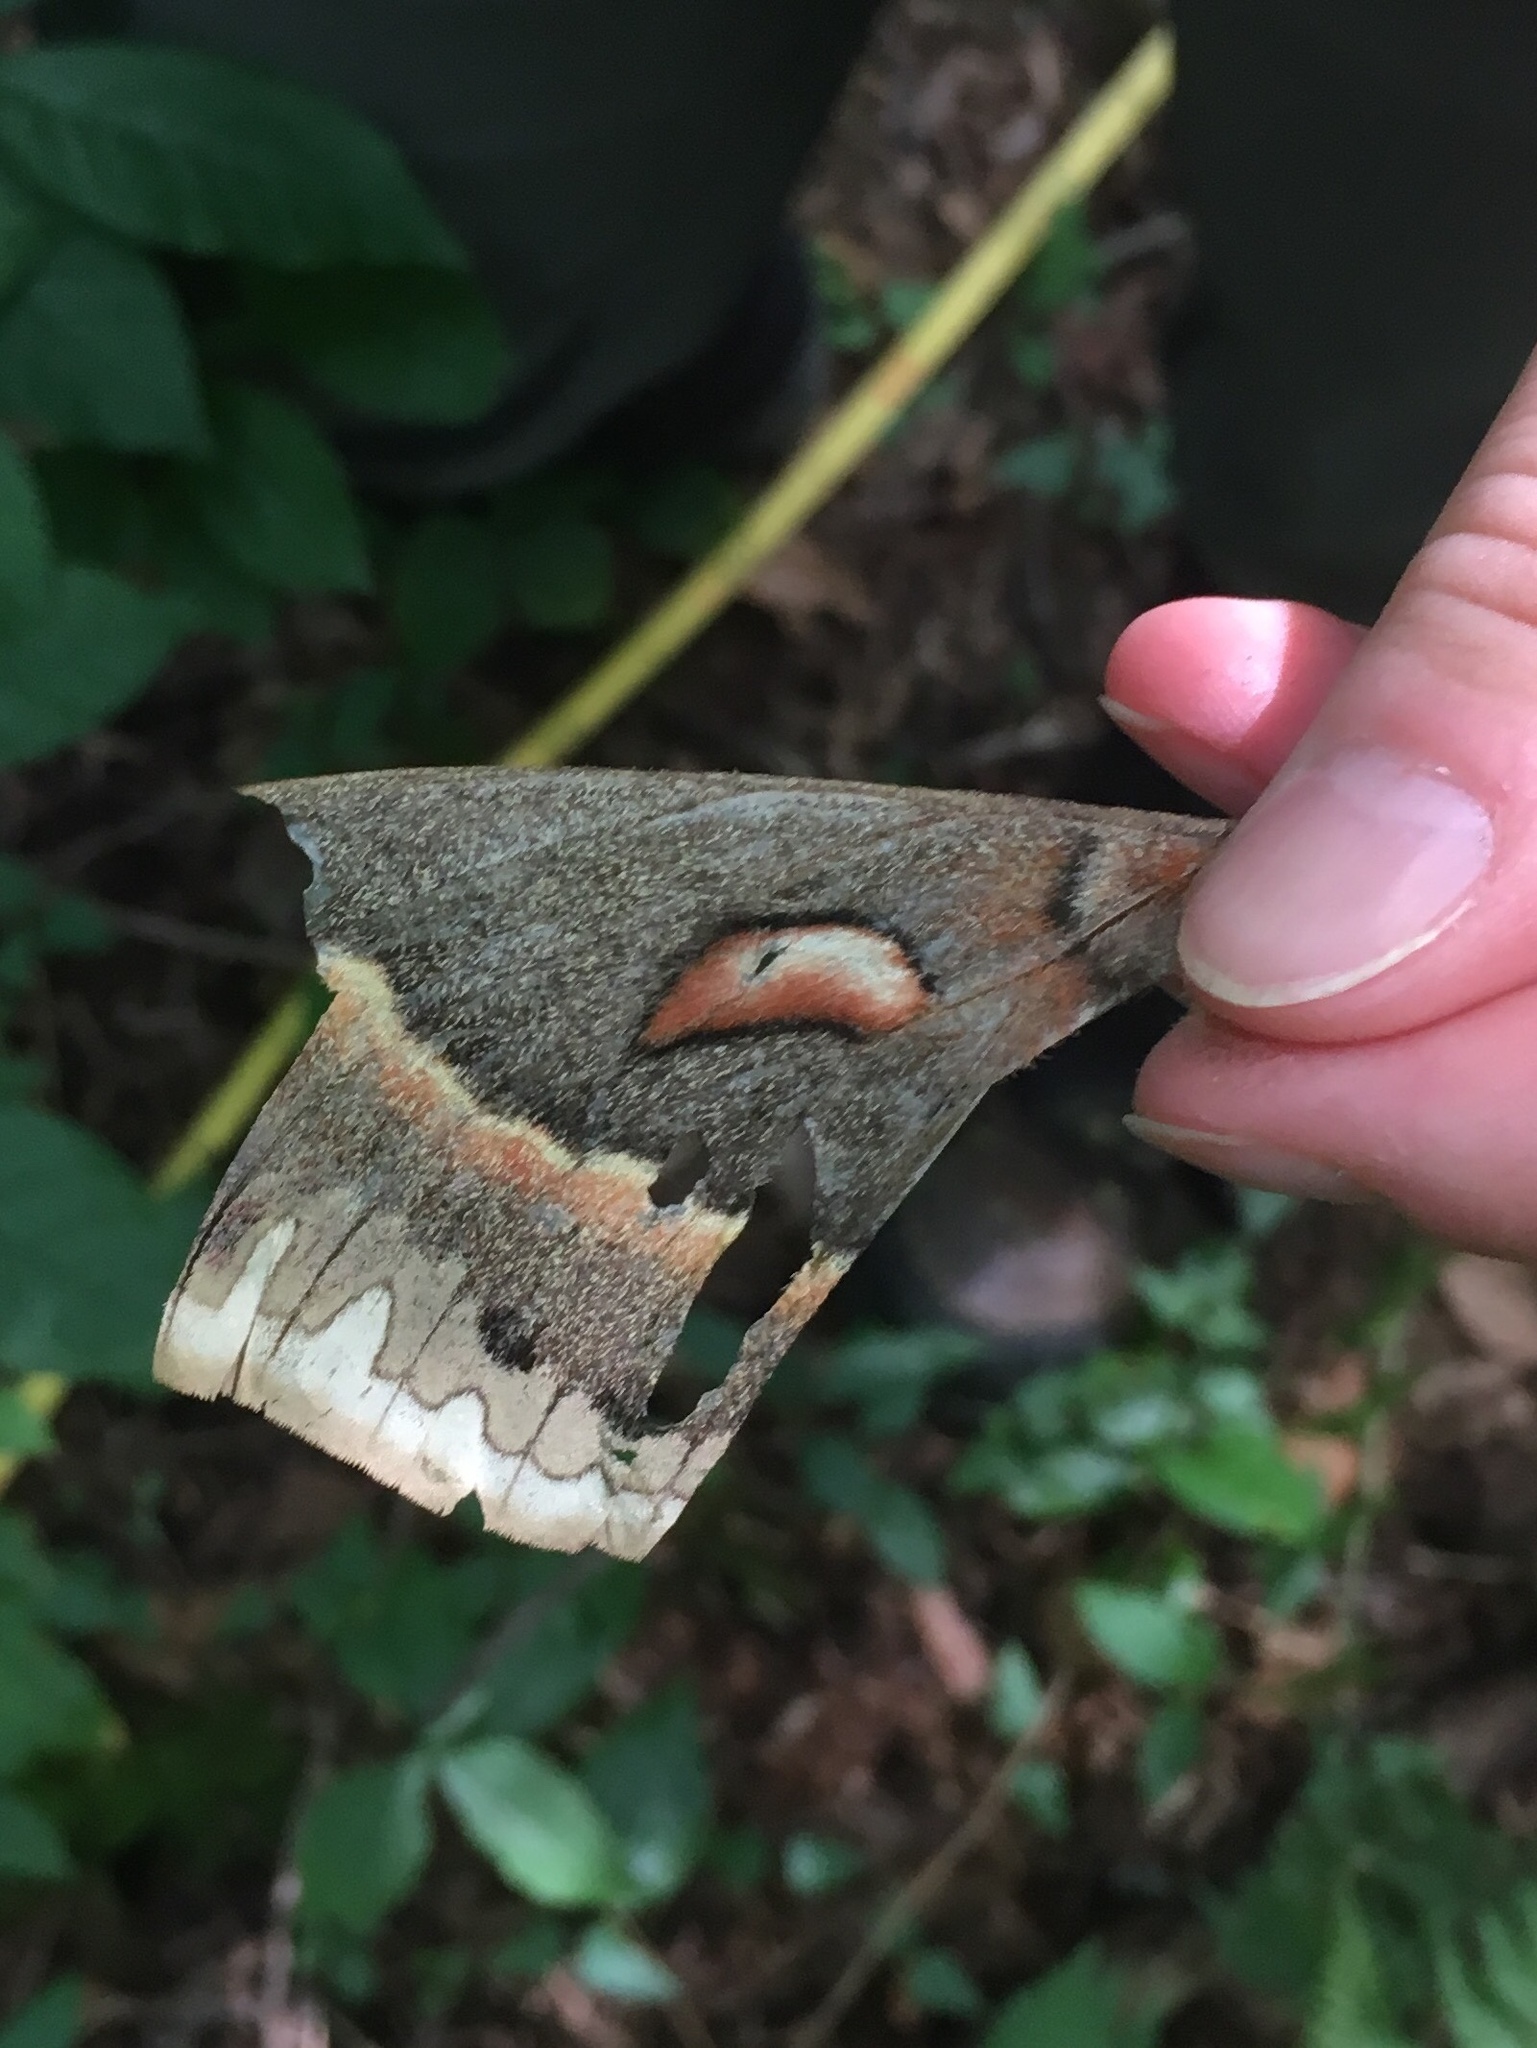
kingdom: Animalia
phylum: Arthropoda
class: Insecta
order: Lepidoptera
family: Saturniidae
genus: Hyalophora
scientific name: Hyalophora cecropia
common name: Cecropia silkmoth
